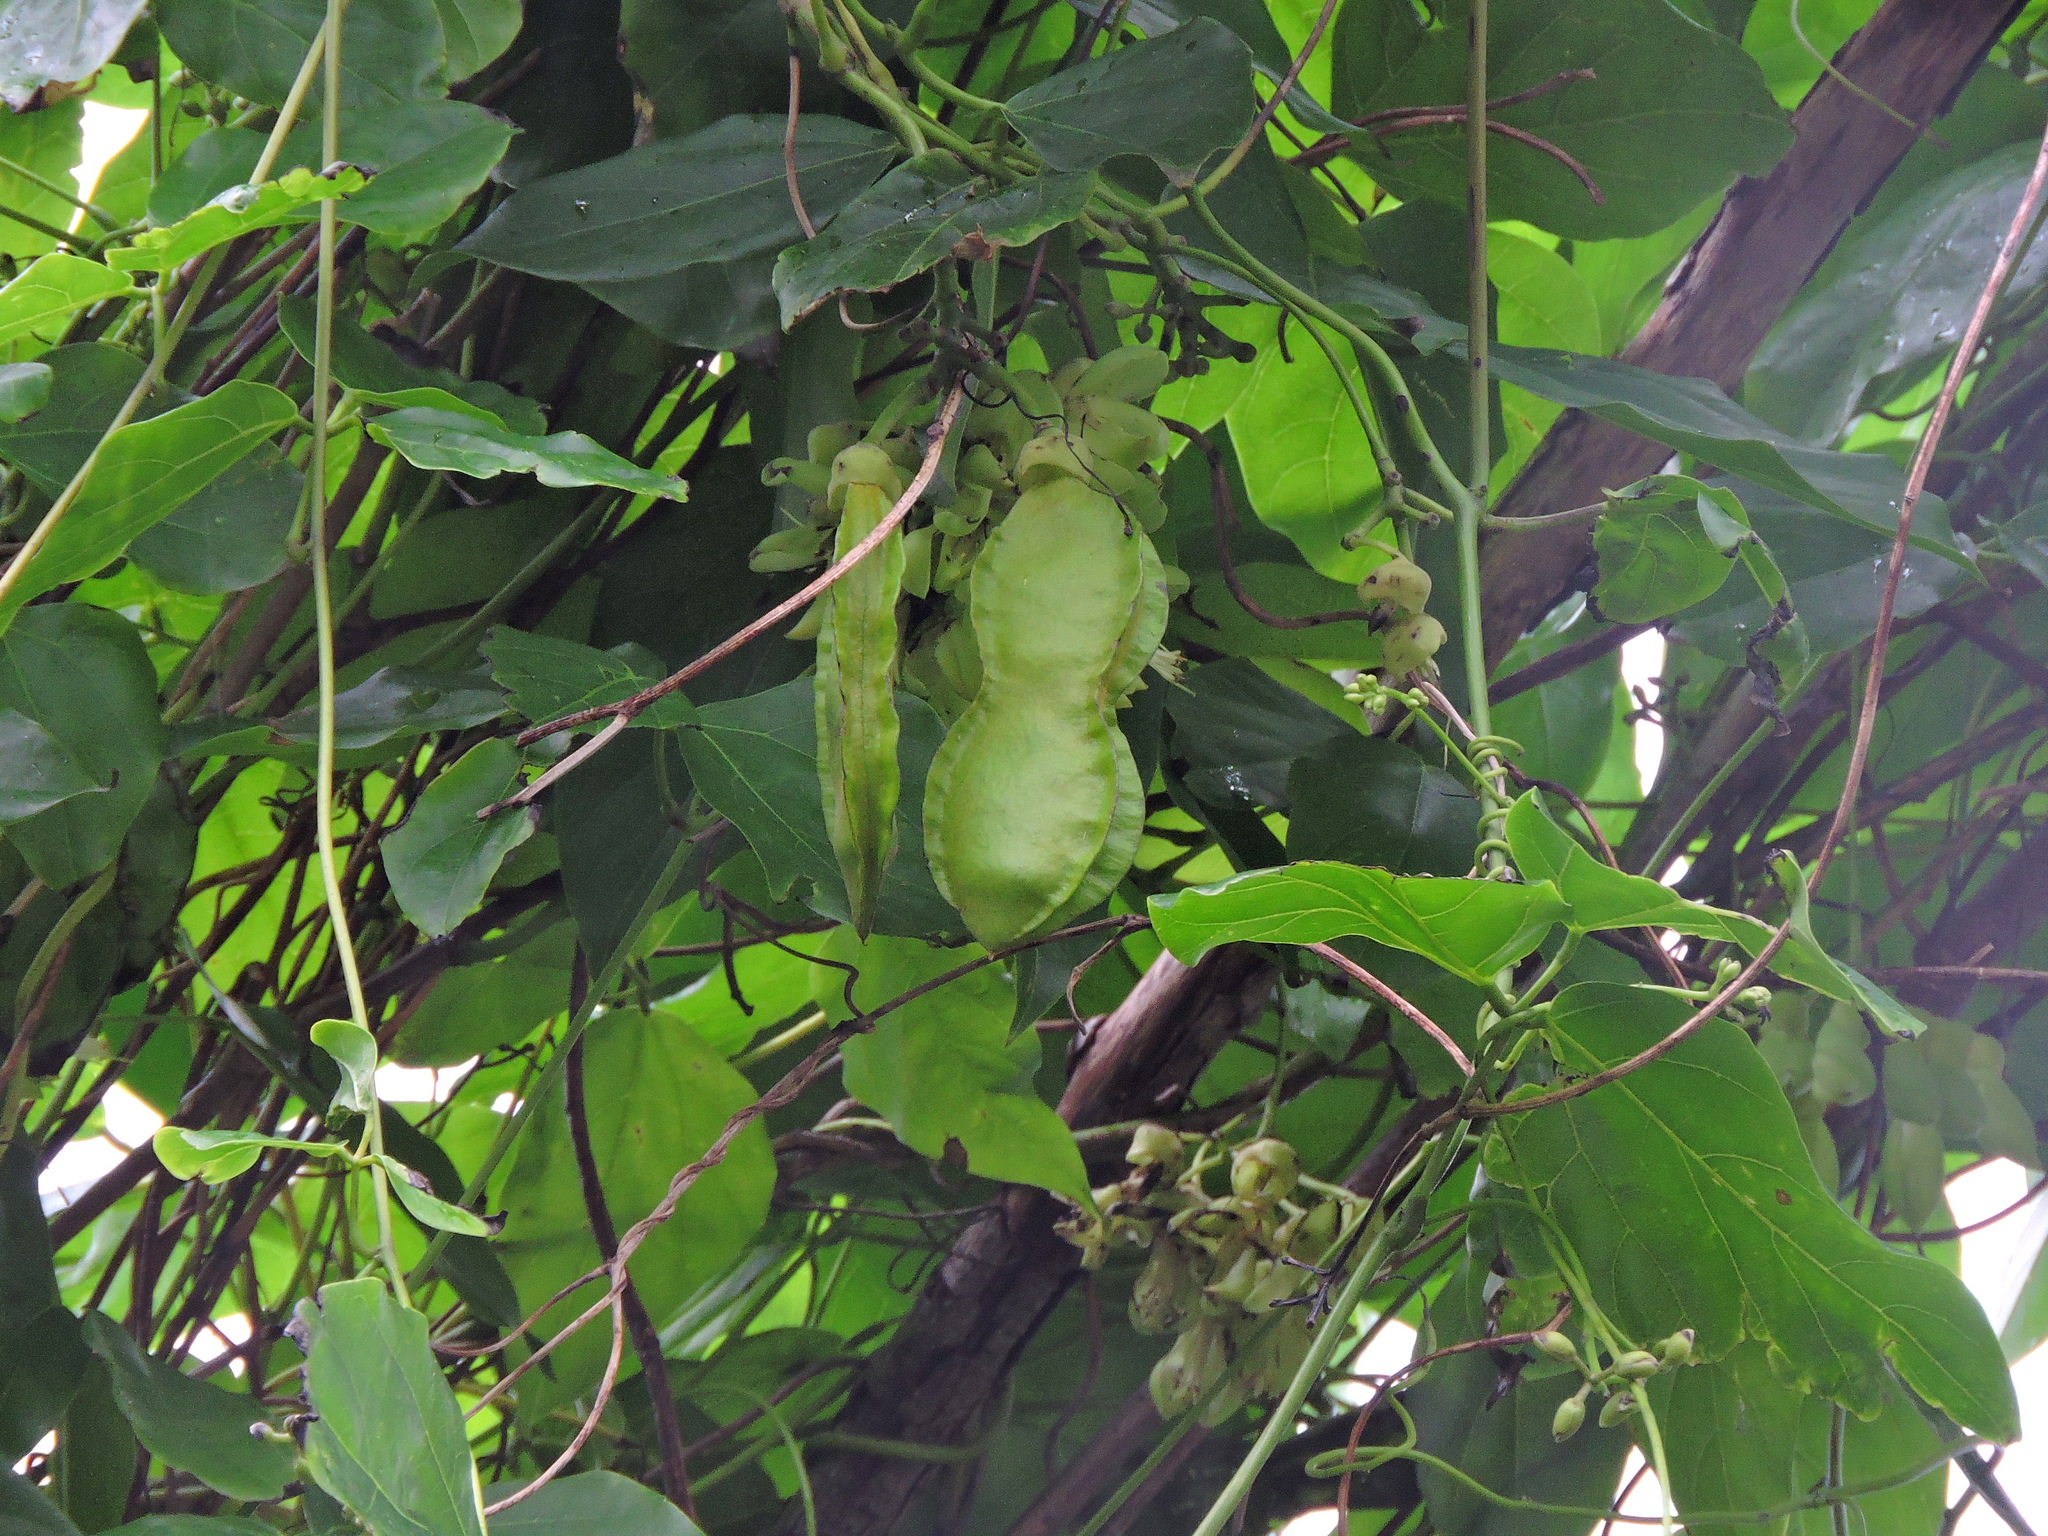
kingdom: Plantae
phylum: Tracheophyta
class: Magnoliopsida
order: Fabales
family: Fabaceae
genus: Mucuna
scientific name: Mucuna gigantea
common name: Black-bean
